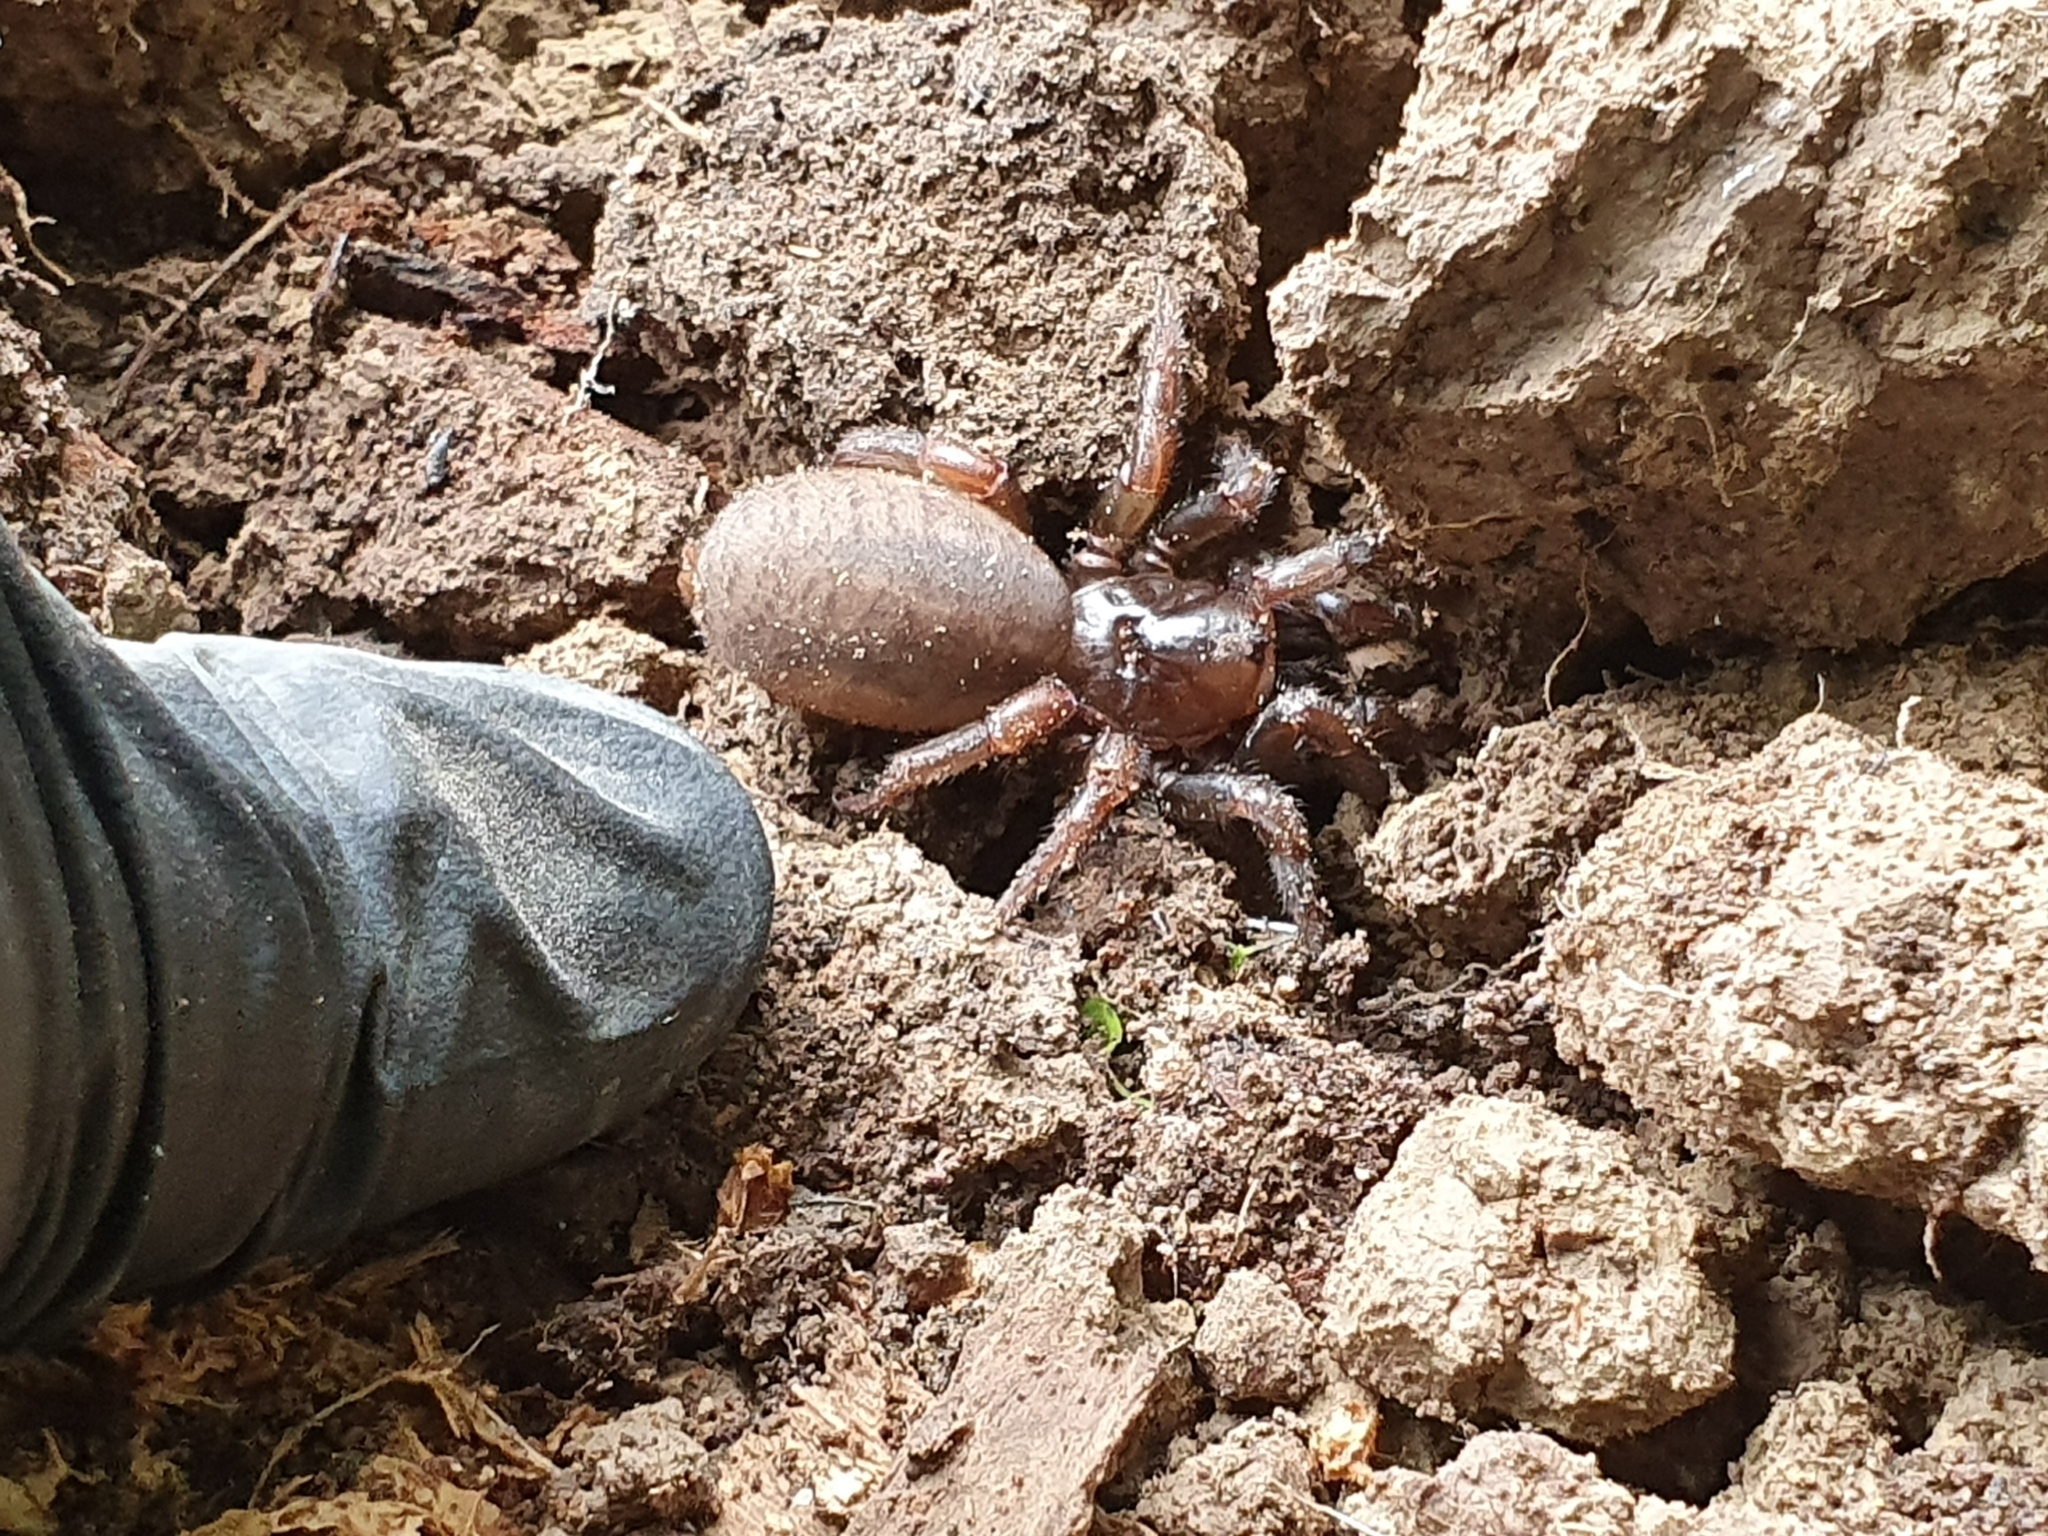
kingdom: Animalia
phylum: Arthropoda
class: Arachnida
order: Araneae
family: Idiopidae
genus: Cantuaria
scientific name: Cantuaria
